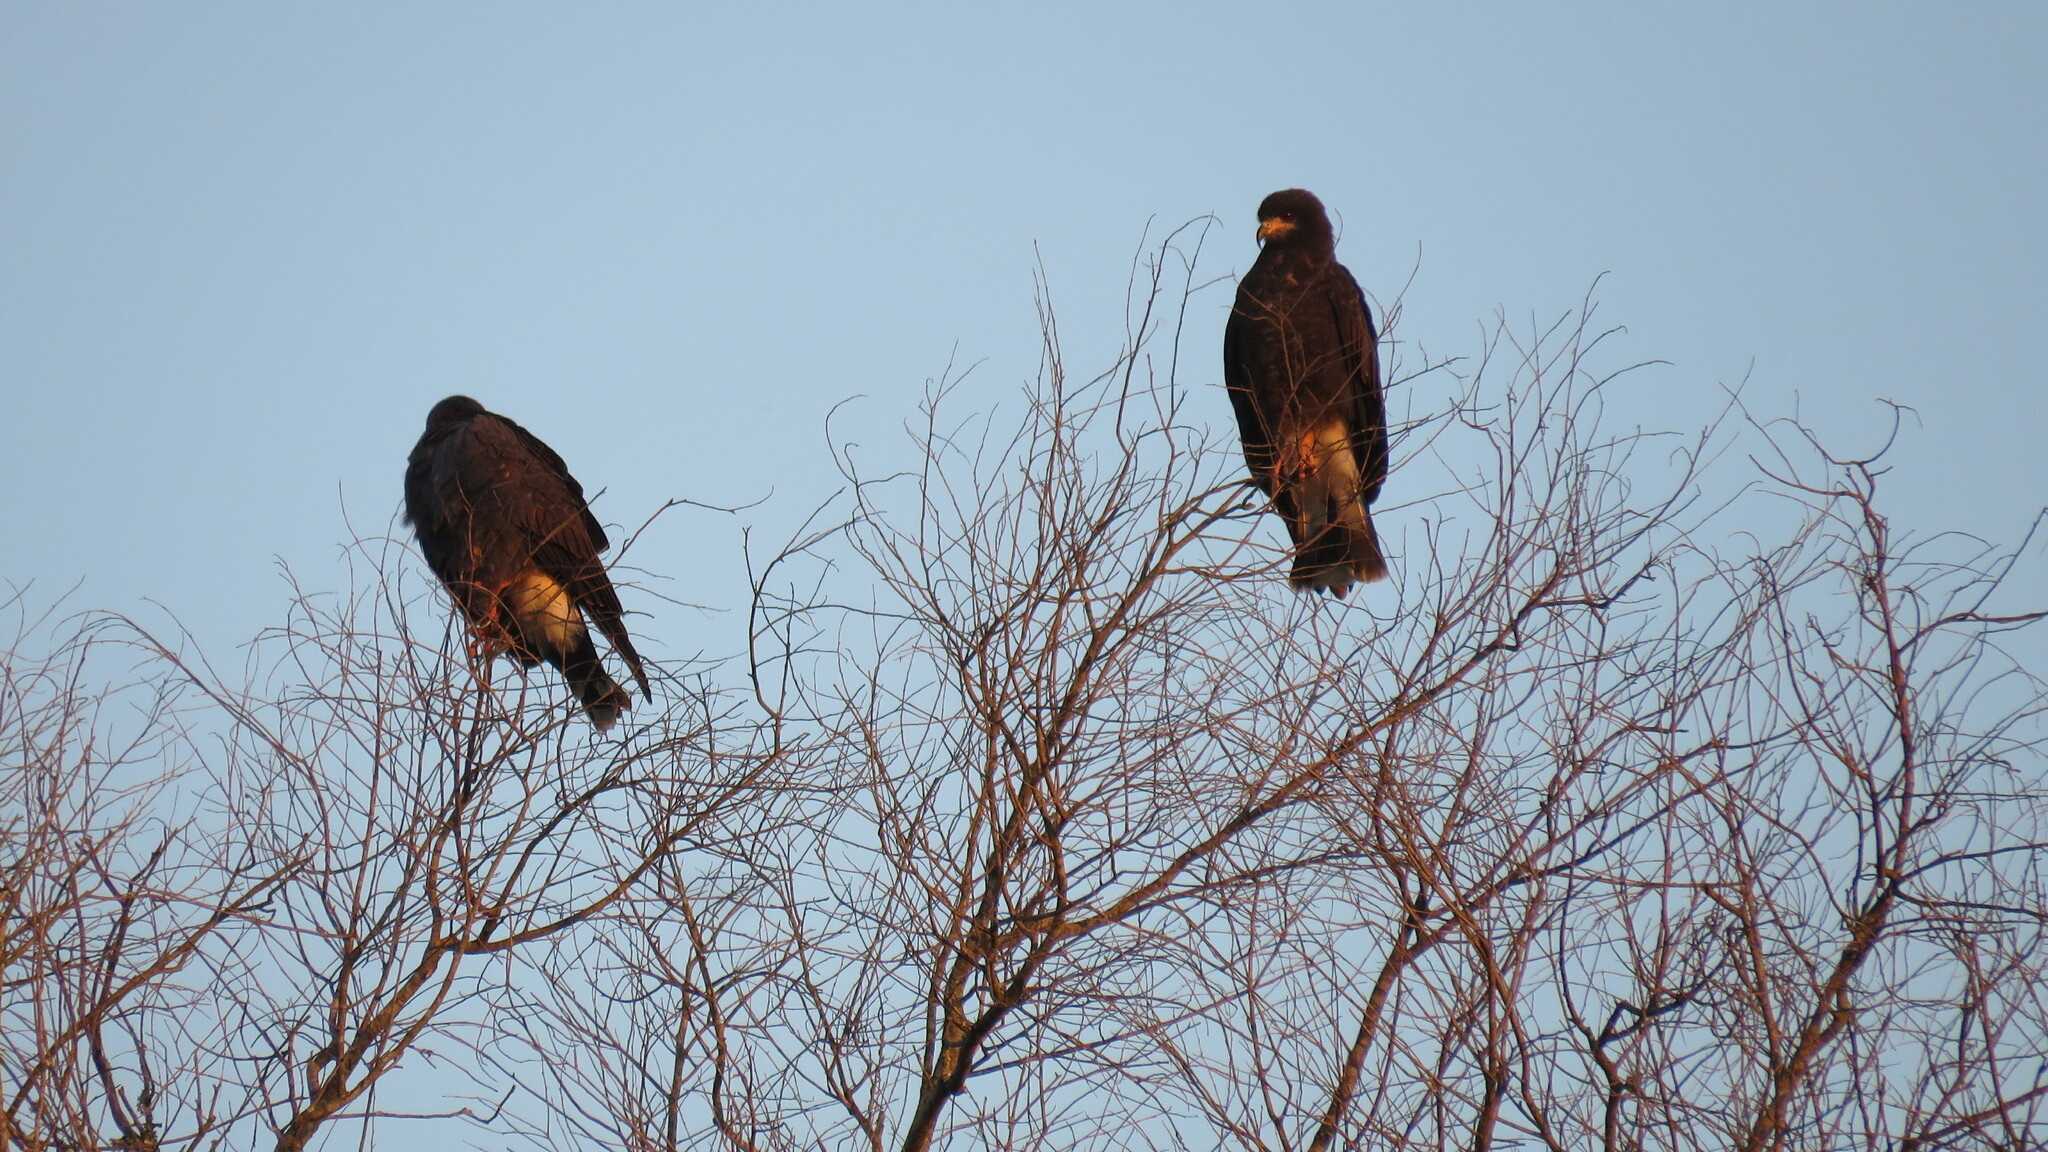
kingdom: Animalia
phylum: Chordata
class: Aves
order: Accipitriformes
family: Accipitridae
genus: Rostrhamus
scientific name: Rostrhamus sociabilis
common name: Snail kite
